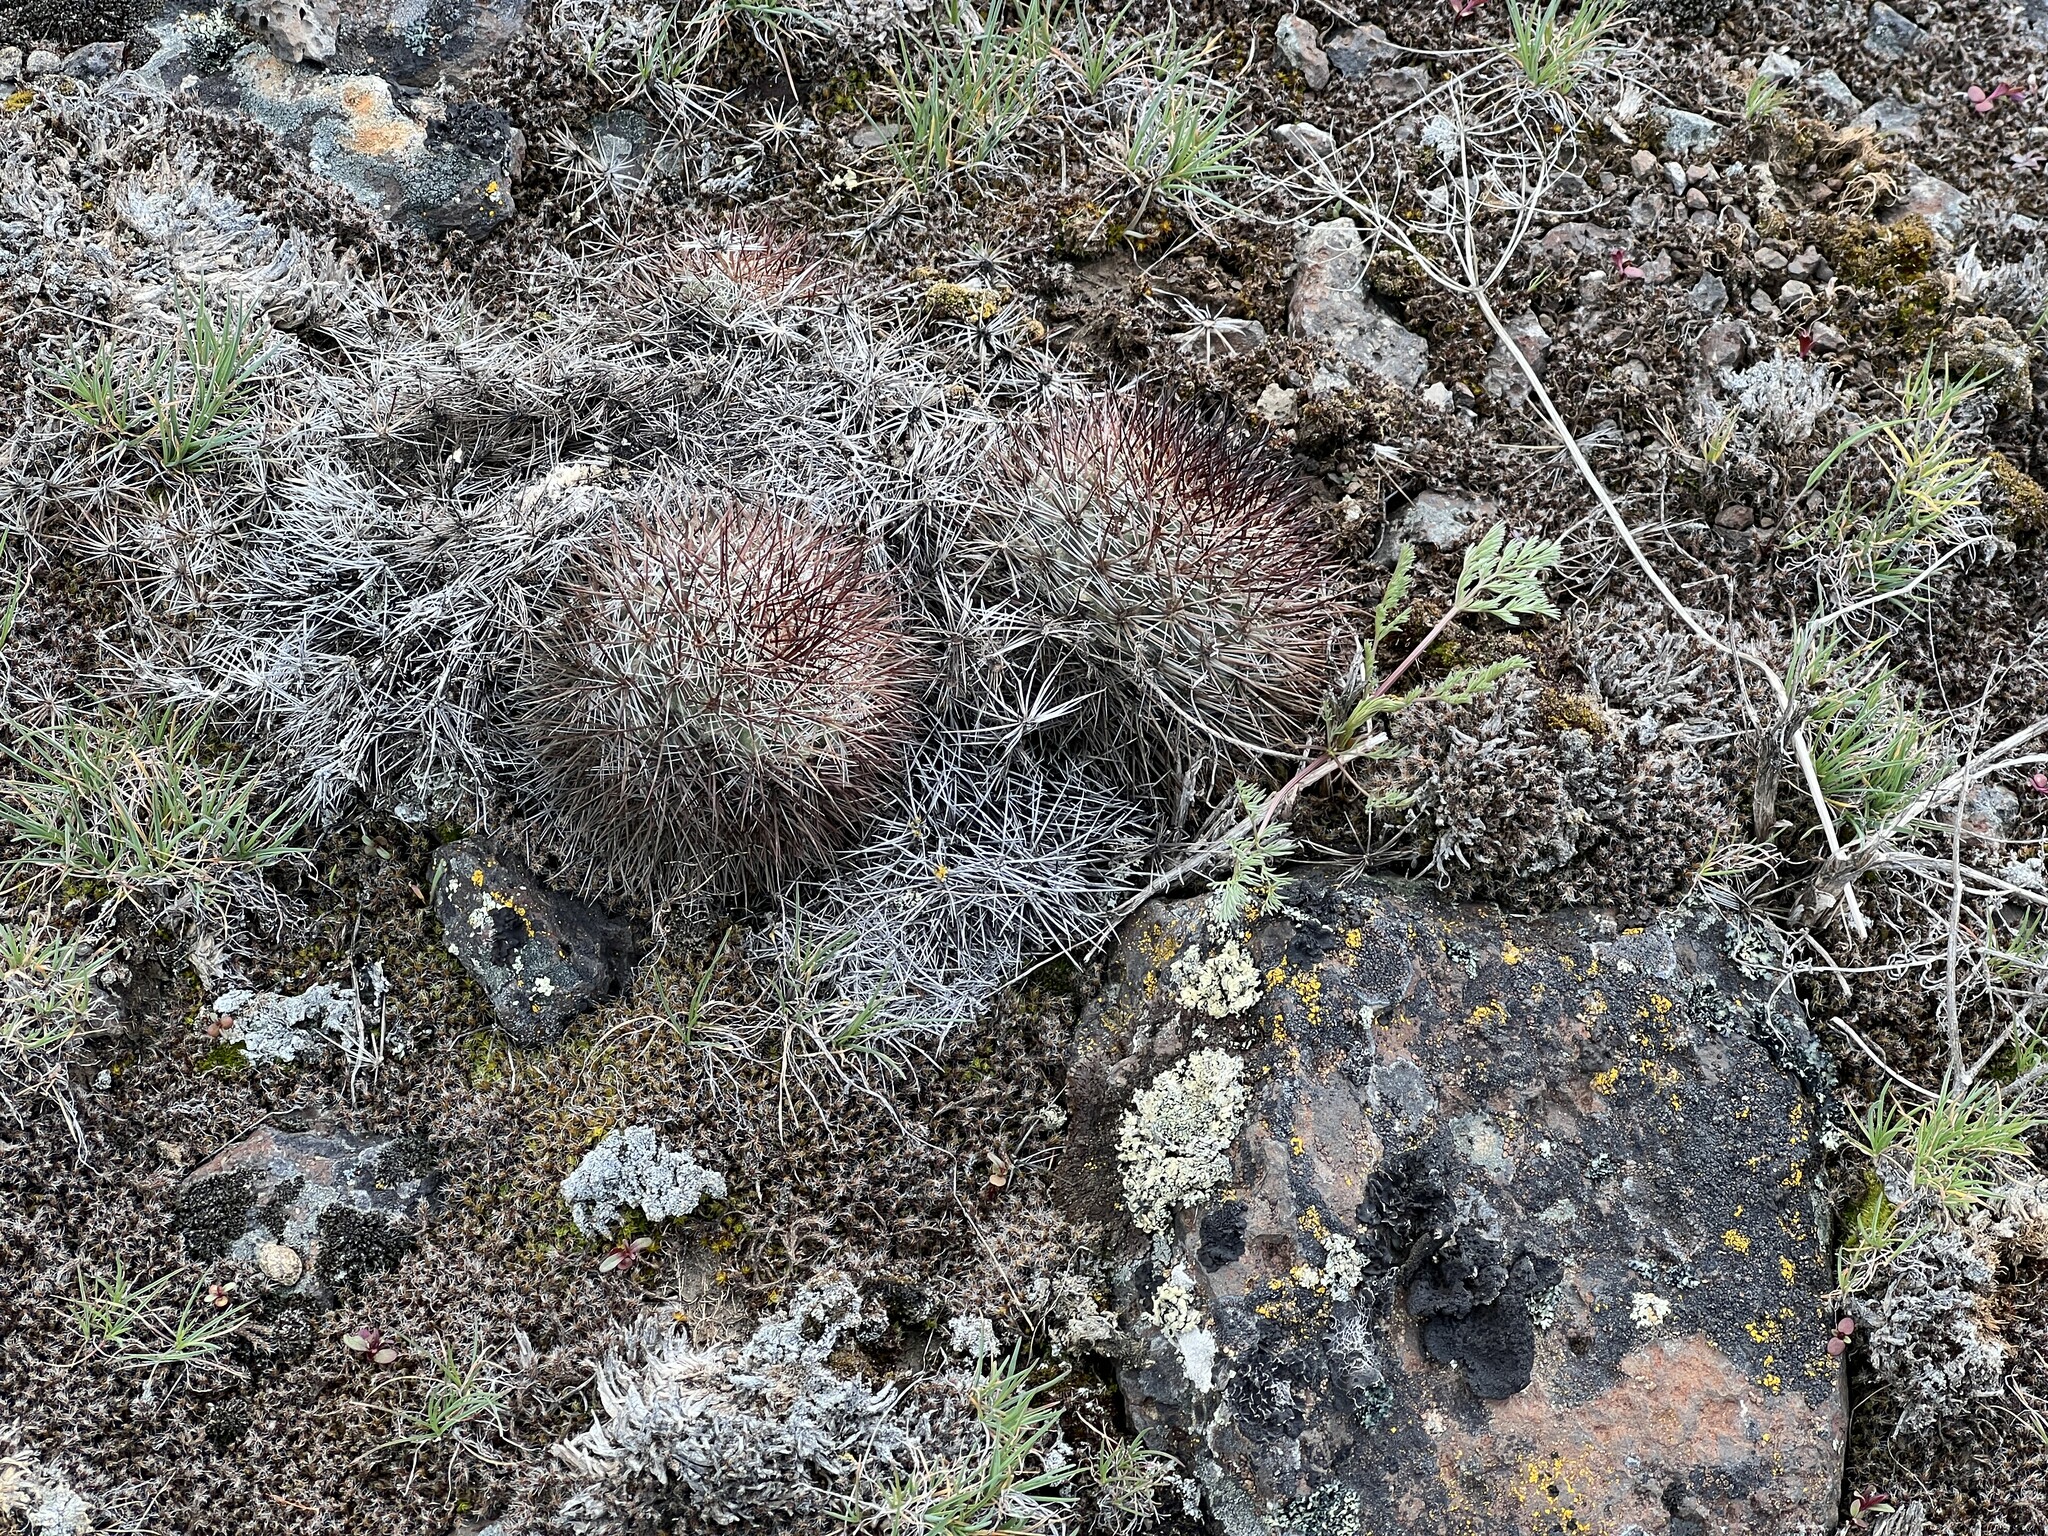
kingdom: Plantae
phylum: Tracheophyta
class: Magnoliopsida
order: Caryophyllales
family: Cactaceae
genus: Pediocactus
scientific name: Pediocactus nigrispinus
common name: Simpson's hedgehog cactus
